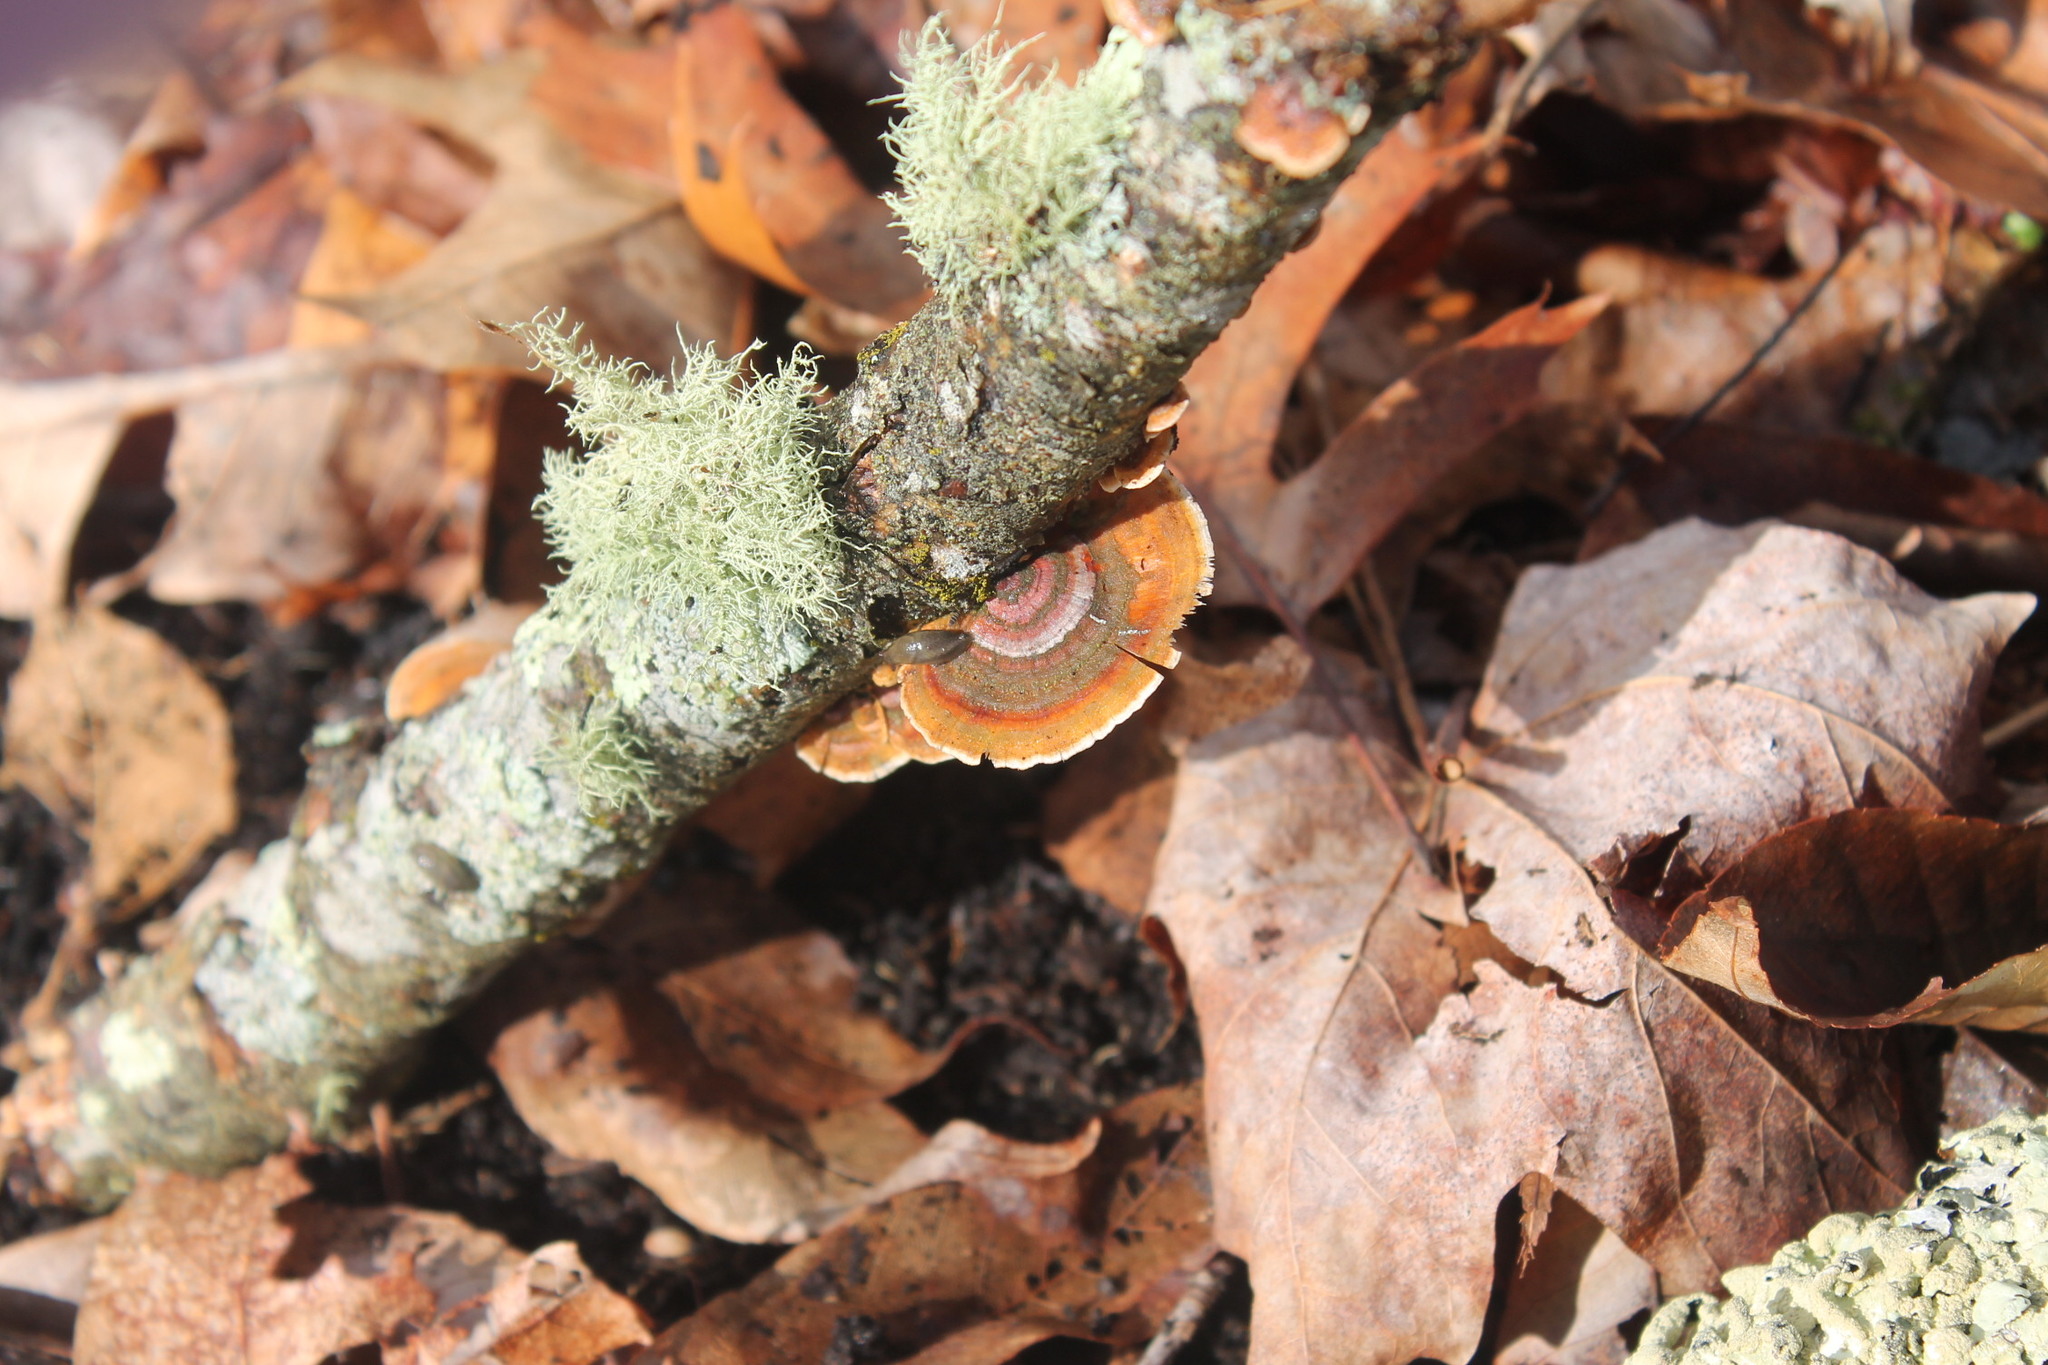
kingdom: Fungi
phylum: Basidiomycota
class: Agaricomycetes
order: Russulales
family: Stereaceae
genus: Stereum
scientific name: Stereum lobatum
